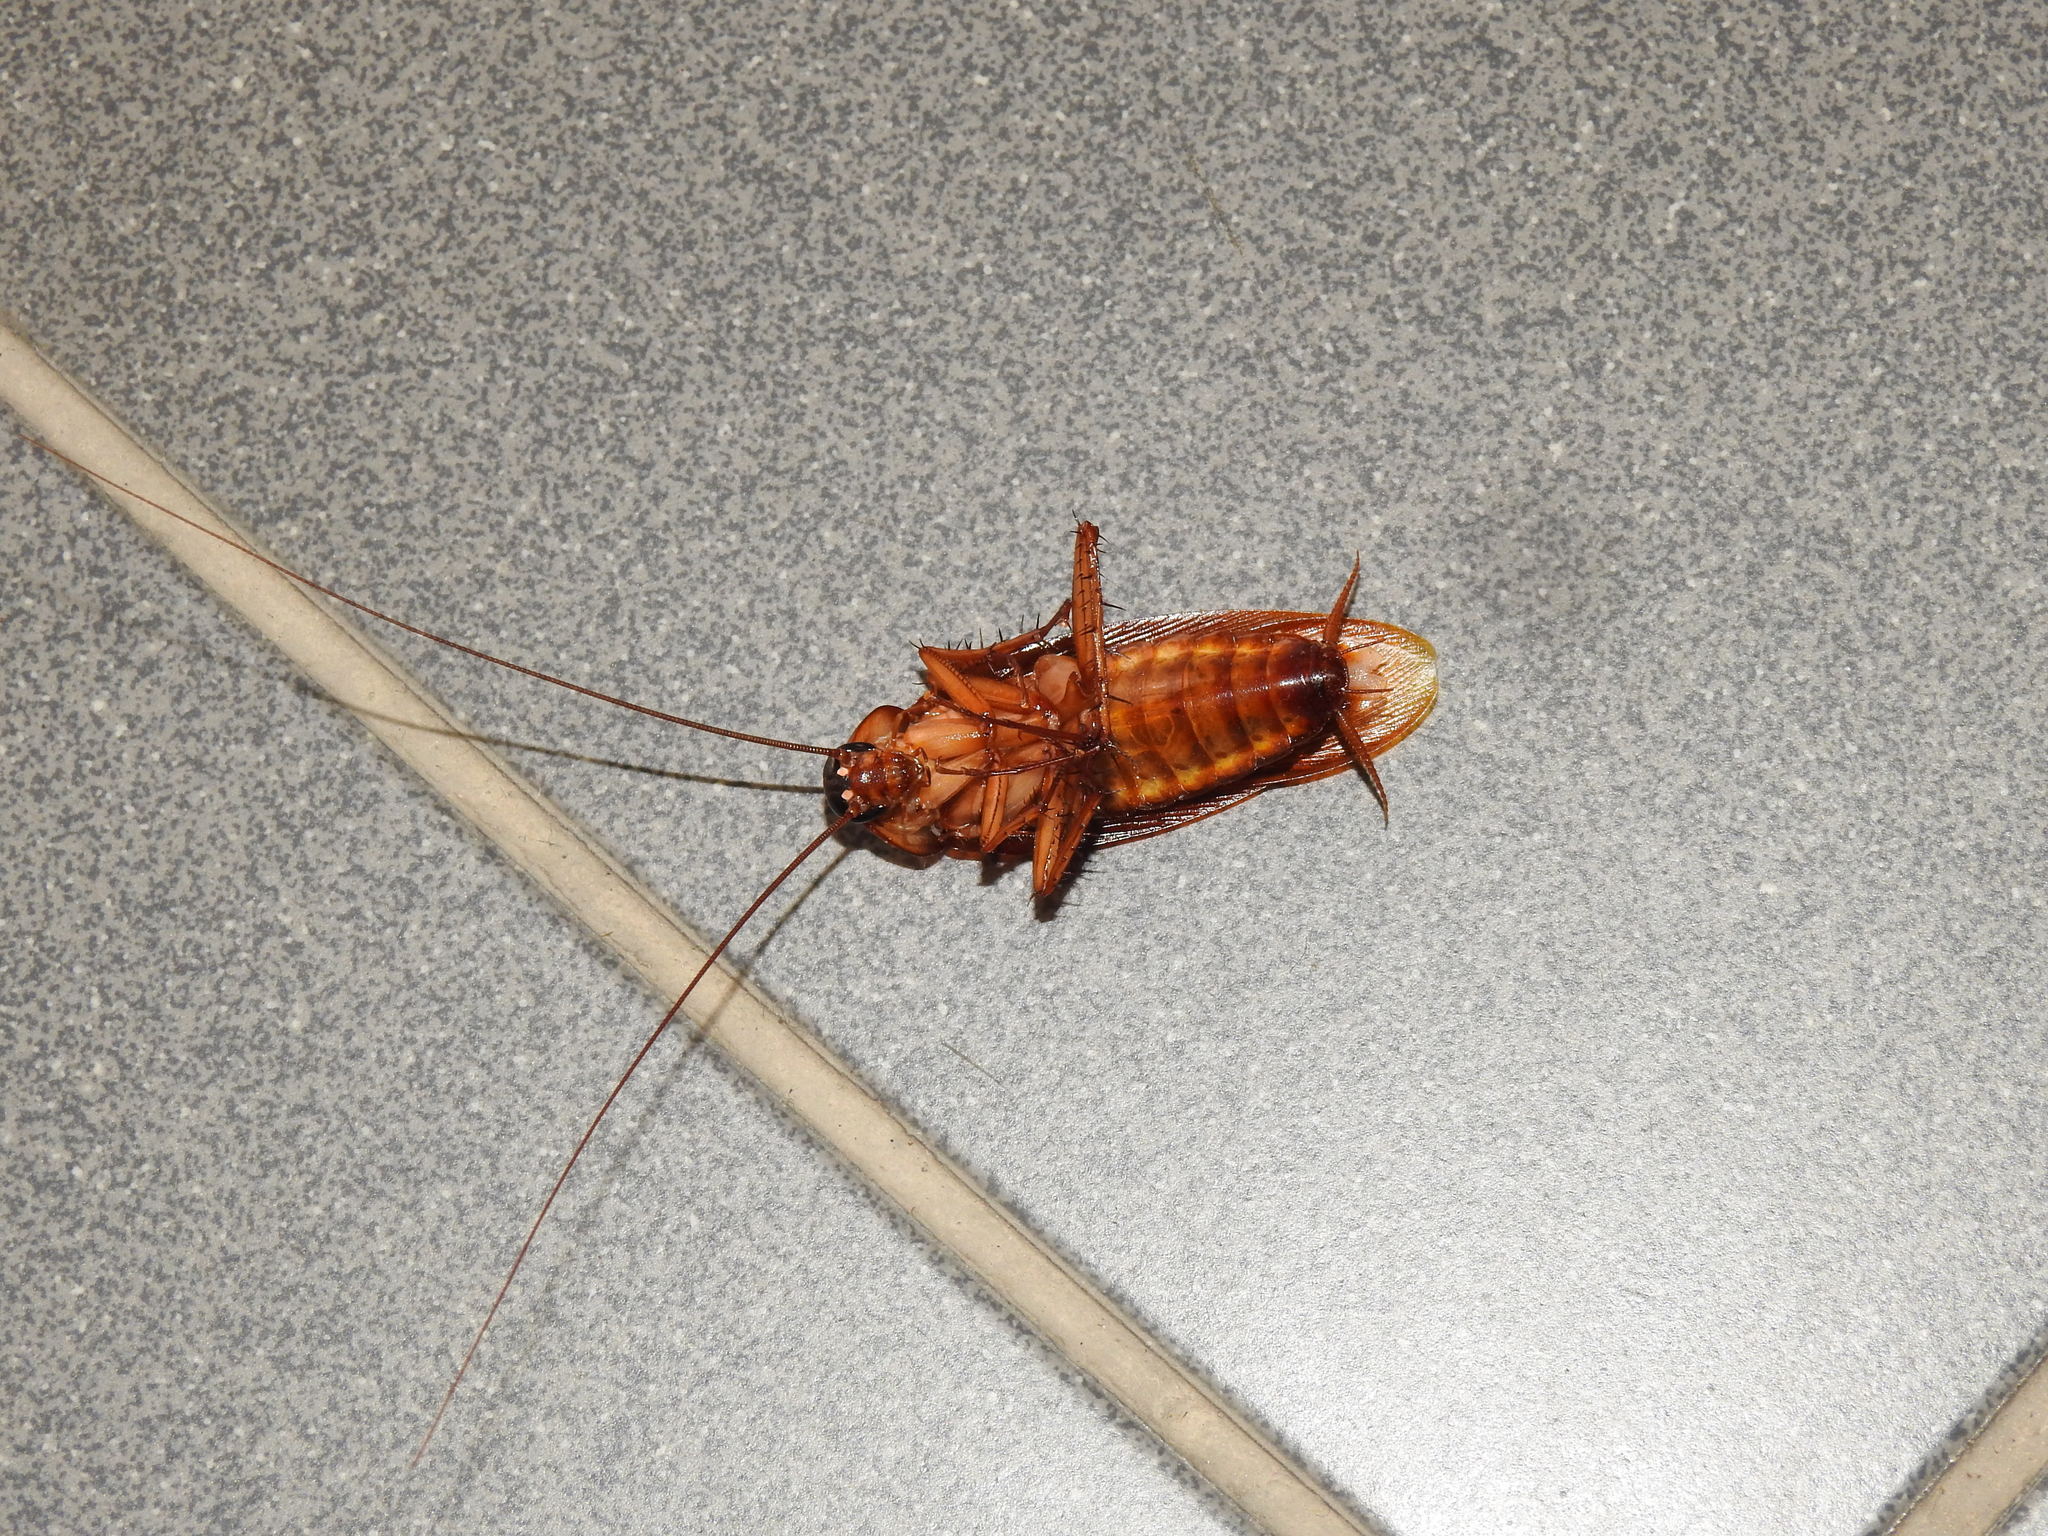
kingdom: Animalia
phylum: Arthropoda
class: Insecta
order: Blattodea
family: Blattidae
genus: Periplaneta
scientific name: Periplaneta americana
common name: American cockroach
